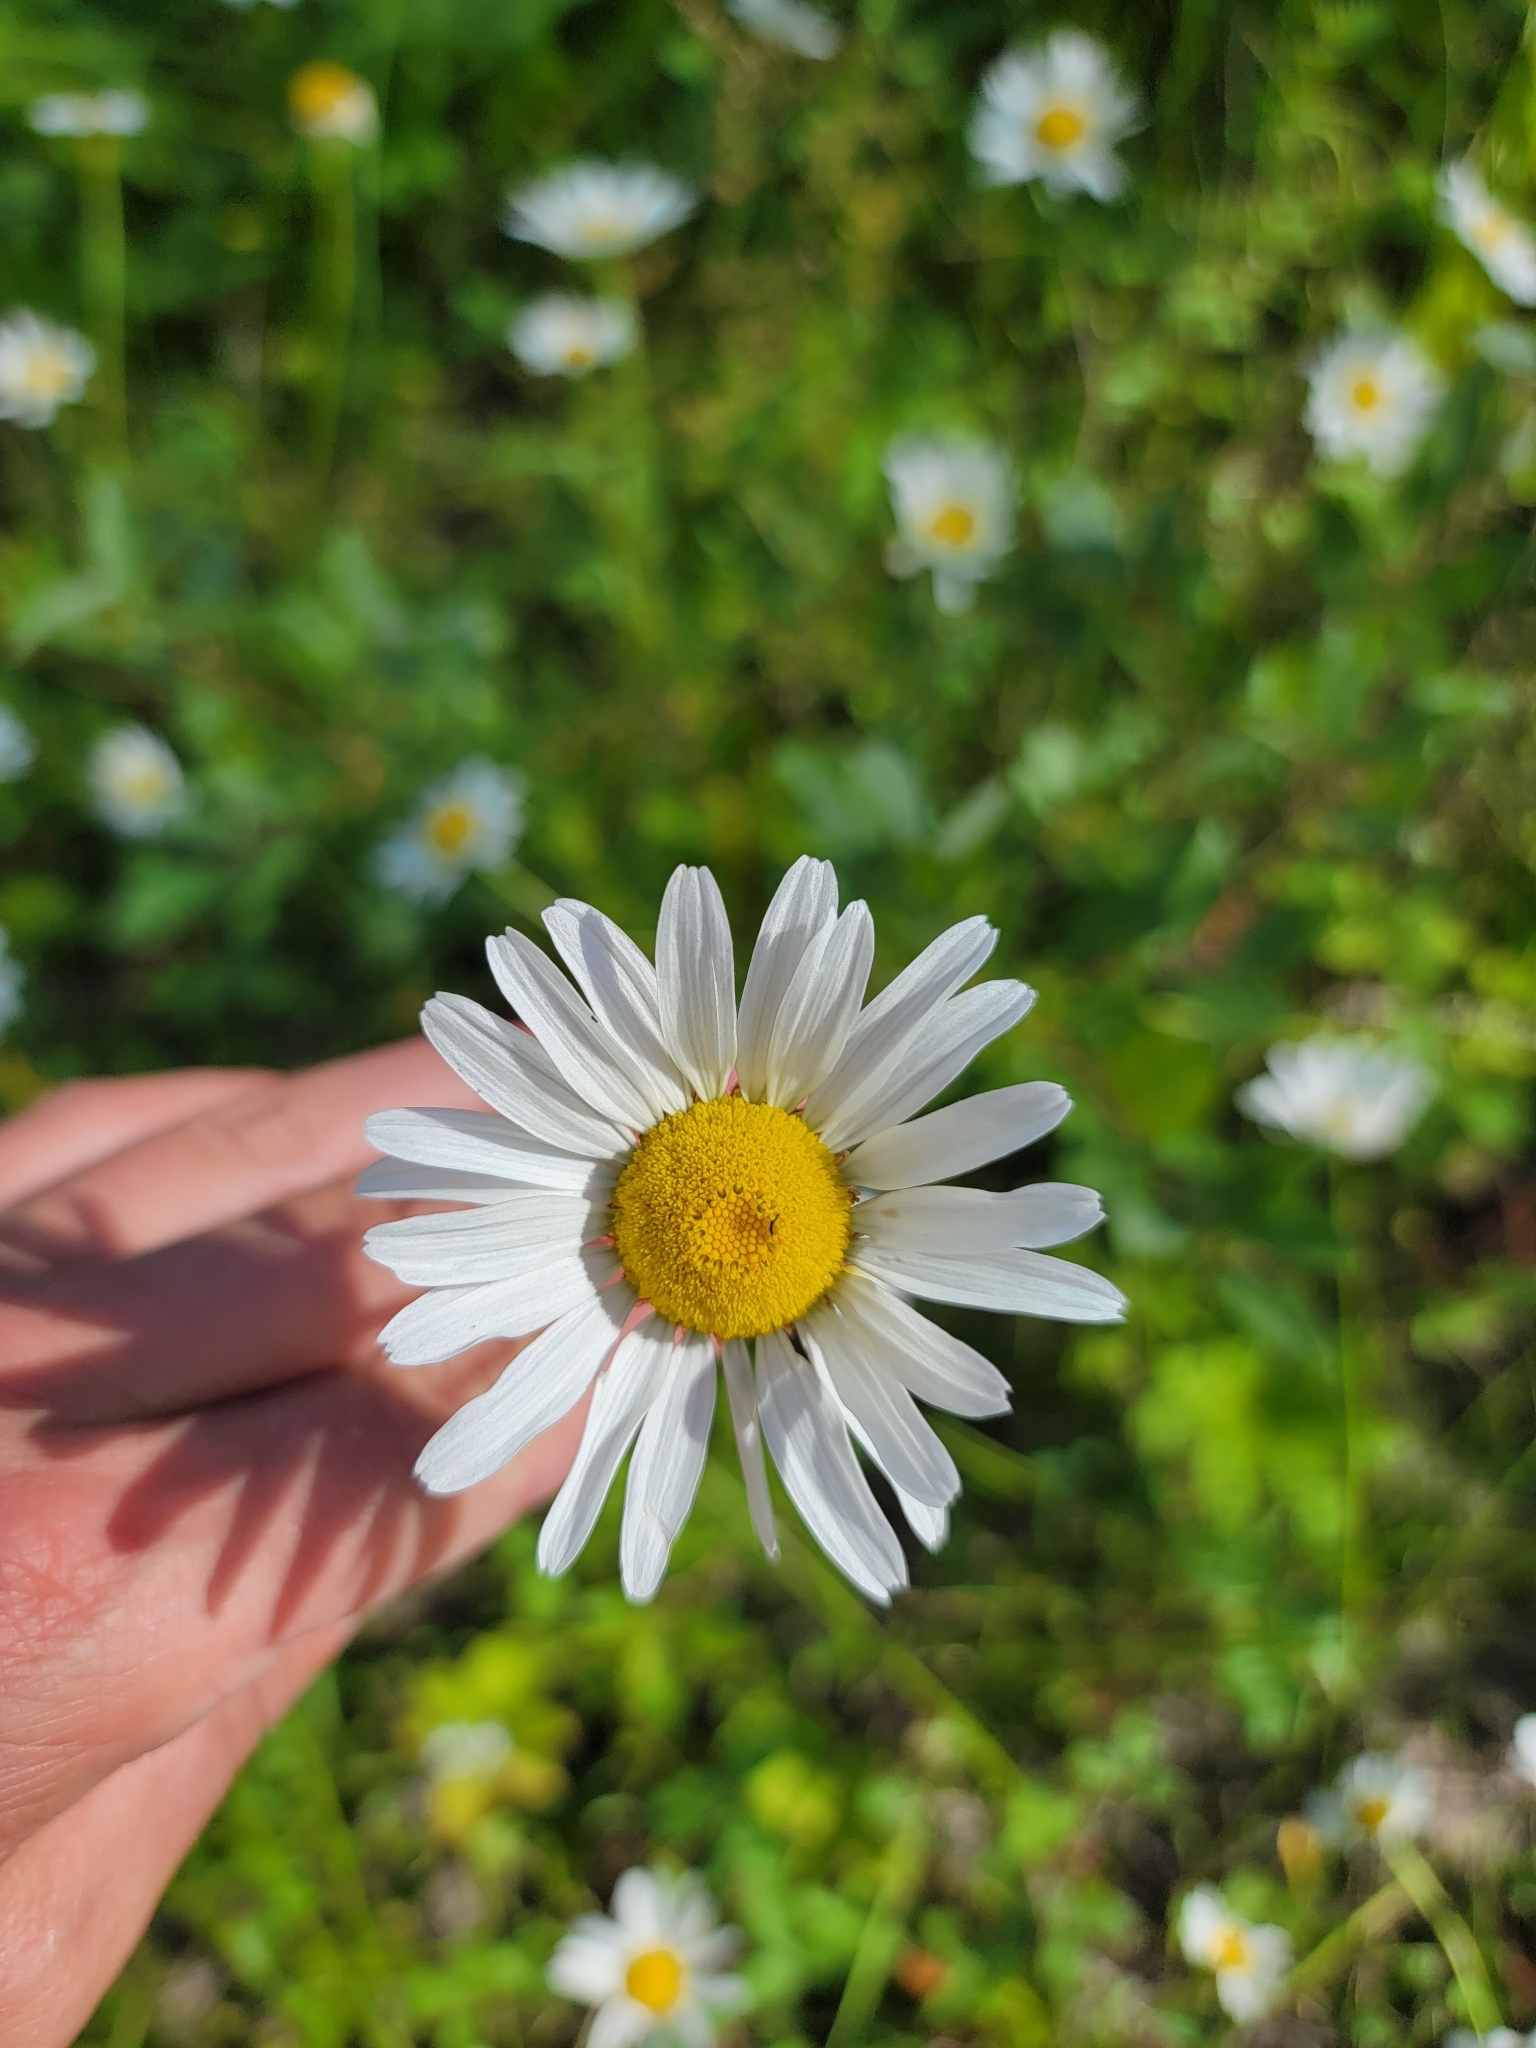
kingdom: Plantae
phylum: Tracheophyta
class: Magnoliopsida
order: Asterales
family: Asteraceae
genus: Leucanthemum
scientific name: Leucanthemum vulgare
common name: Oxeye daisy
